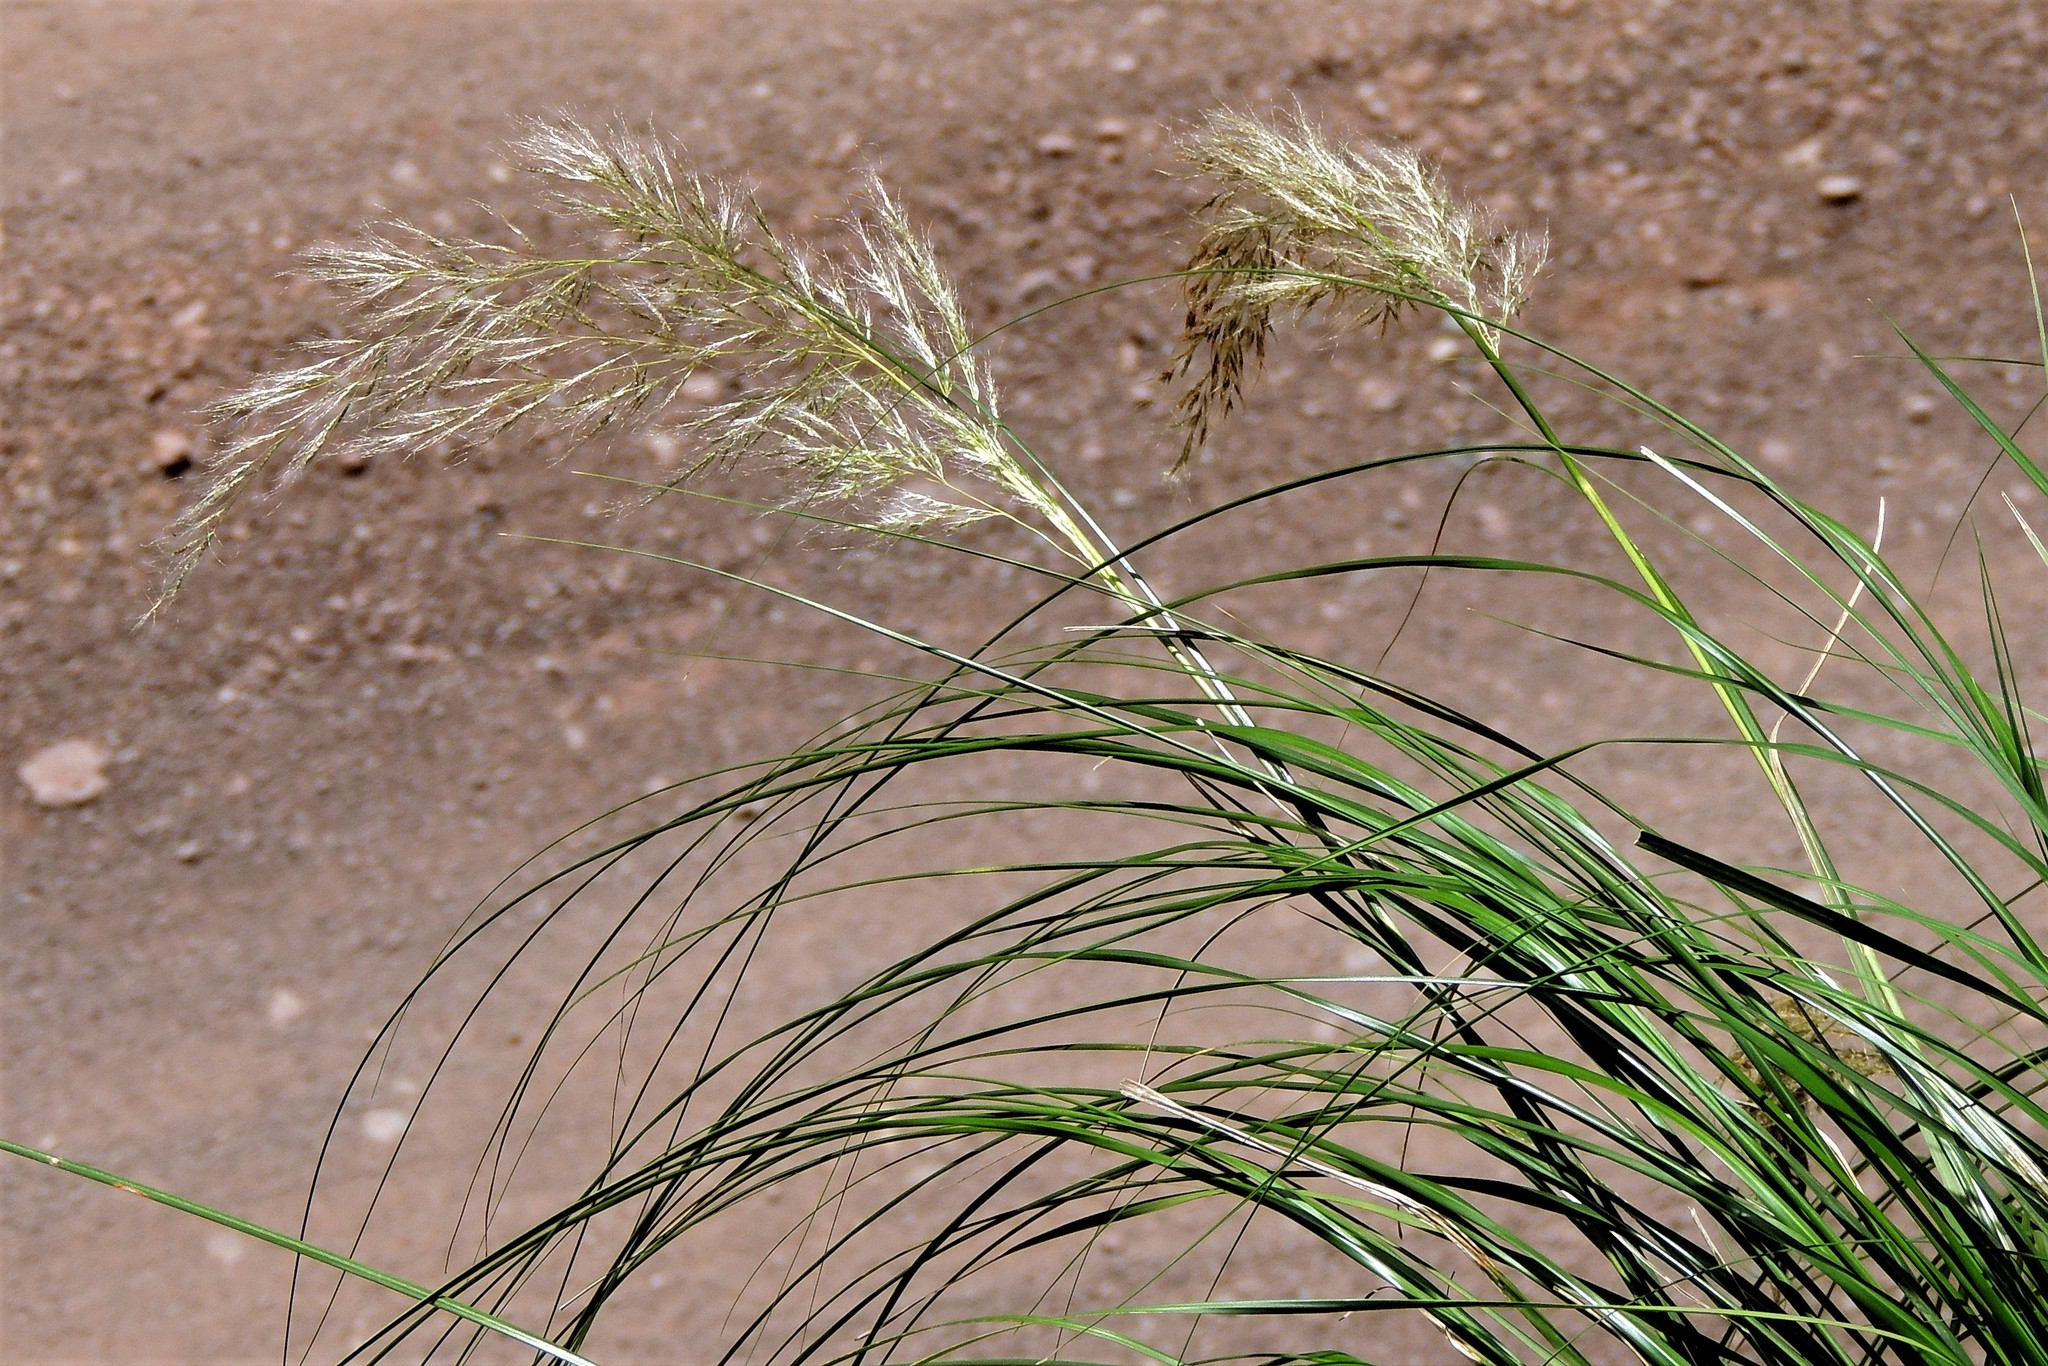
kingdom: Plantae
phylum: Tracheophyta
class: Liliopsida
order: Poales
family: Poaceae
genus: Cortaderia
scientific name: Cortaderia hieronymi
